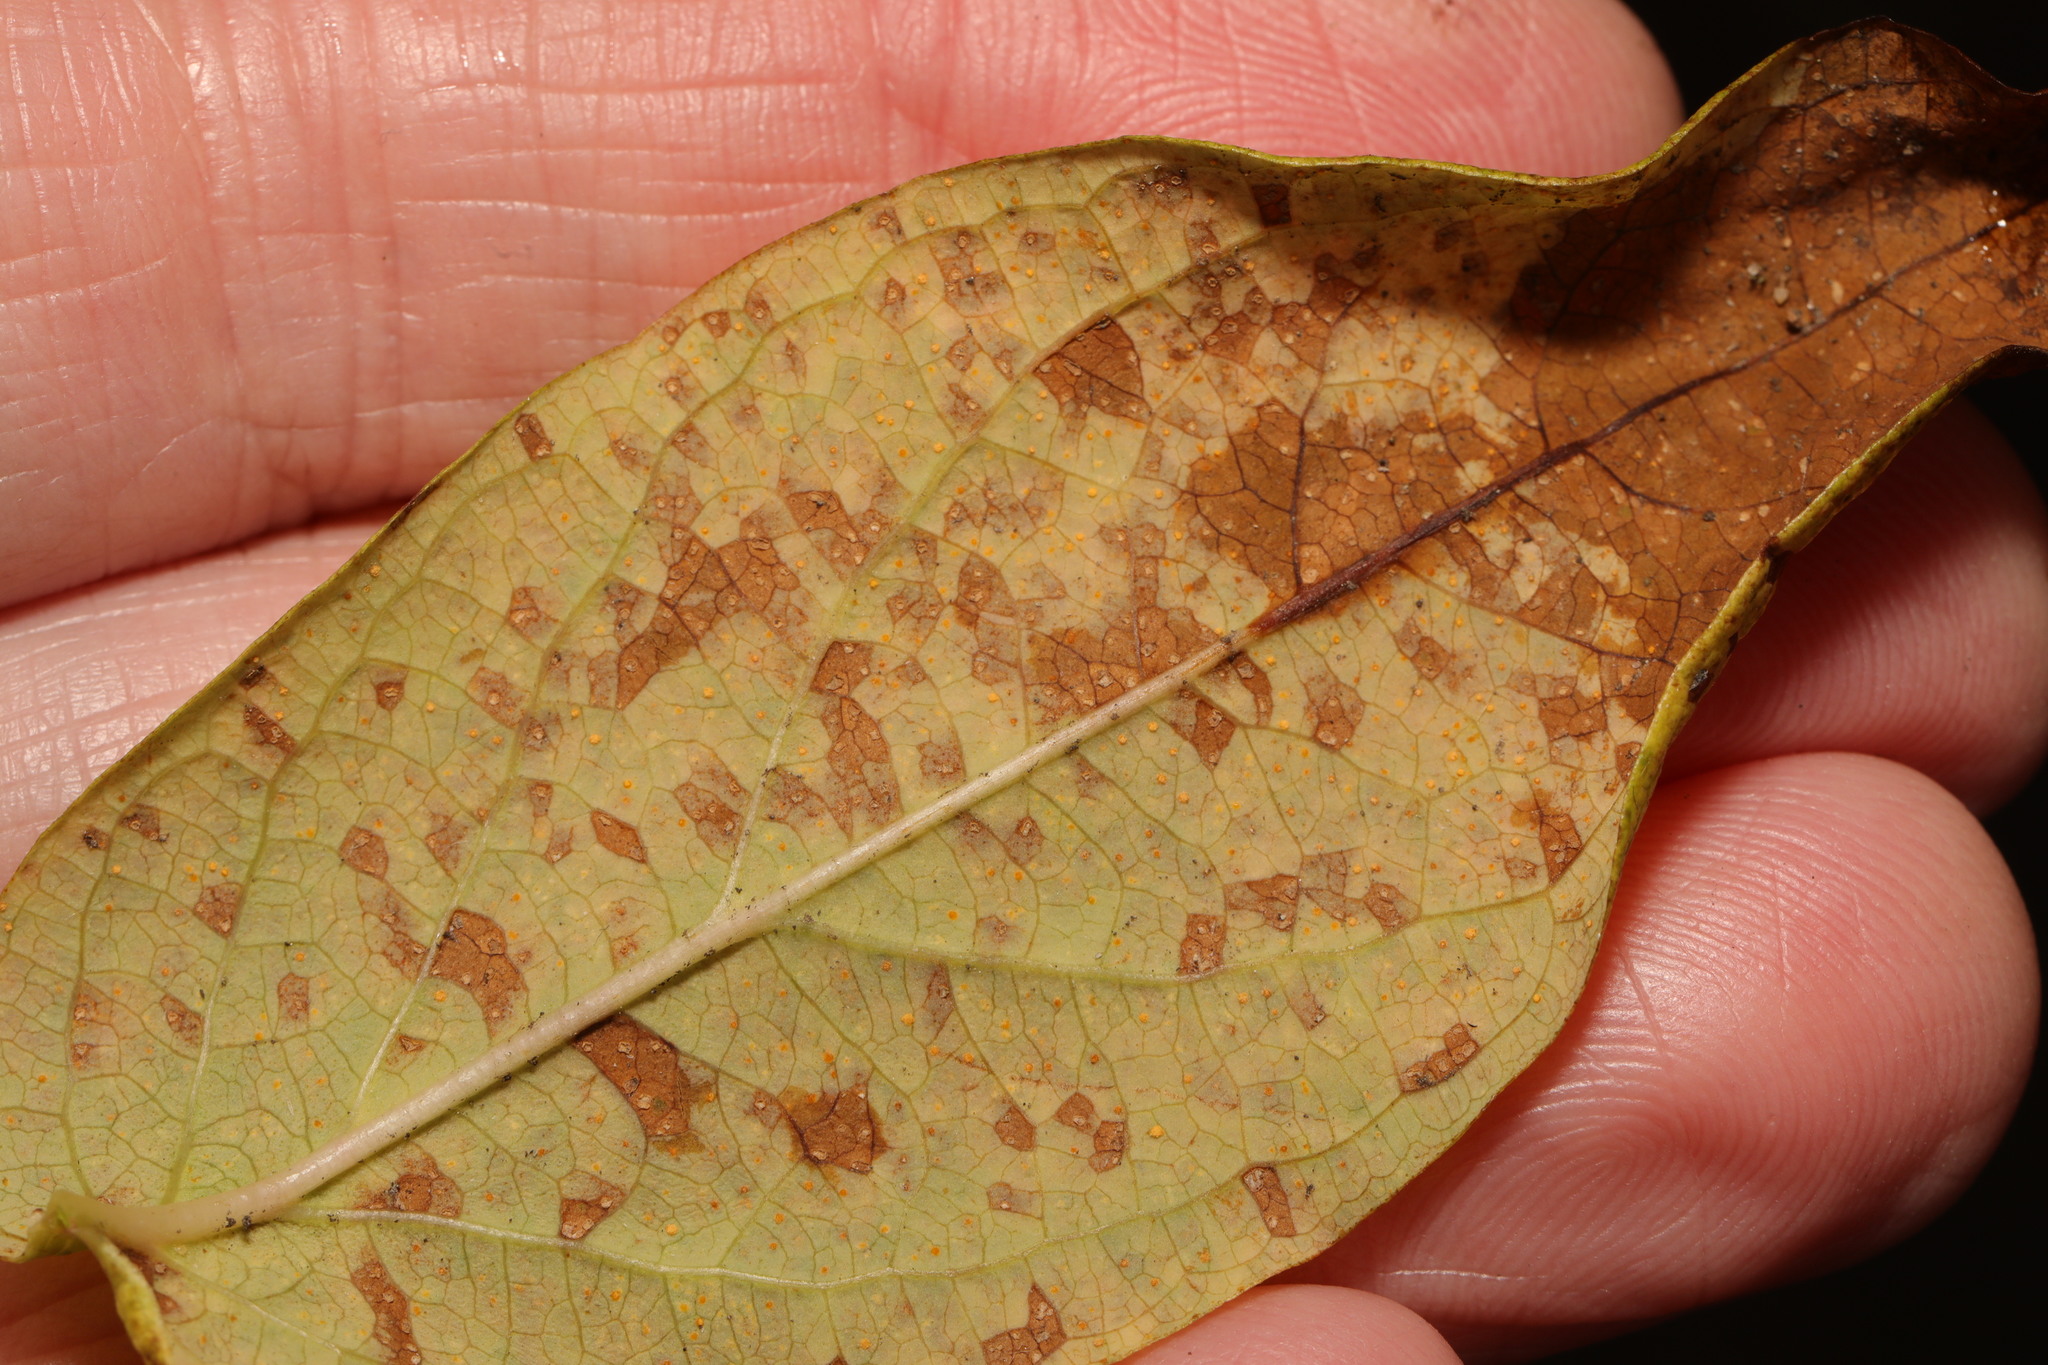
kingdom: Fungi
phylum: Basidiomycota
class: Pucciniomycetes
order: Pucciniales
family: Melampsoraceae
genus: Melampsora
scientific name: Melampsora
